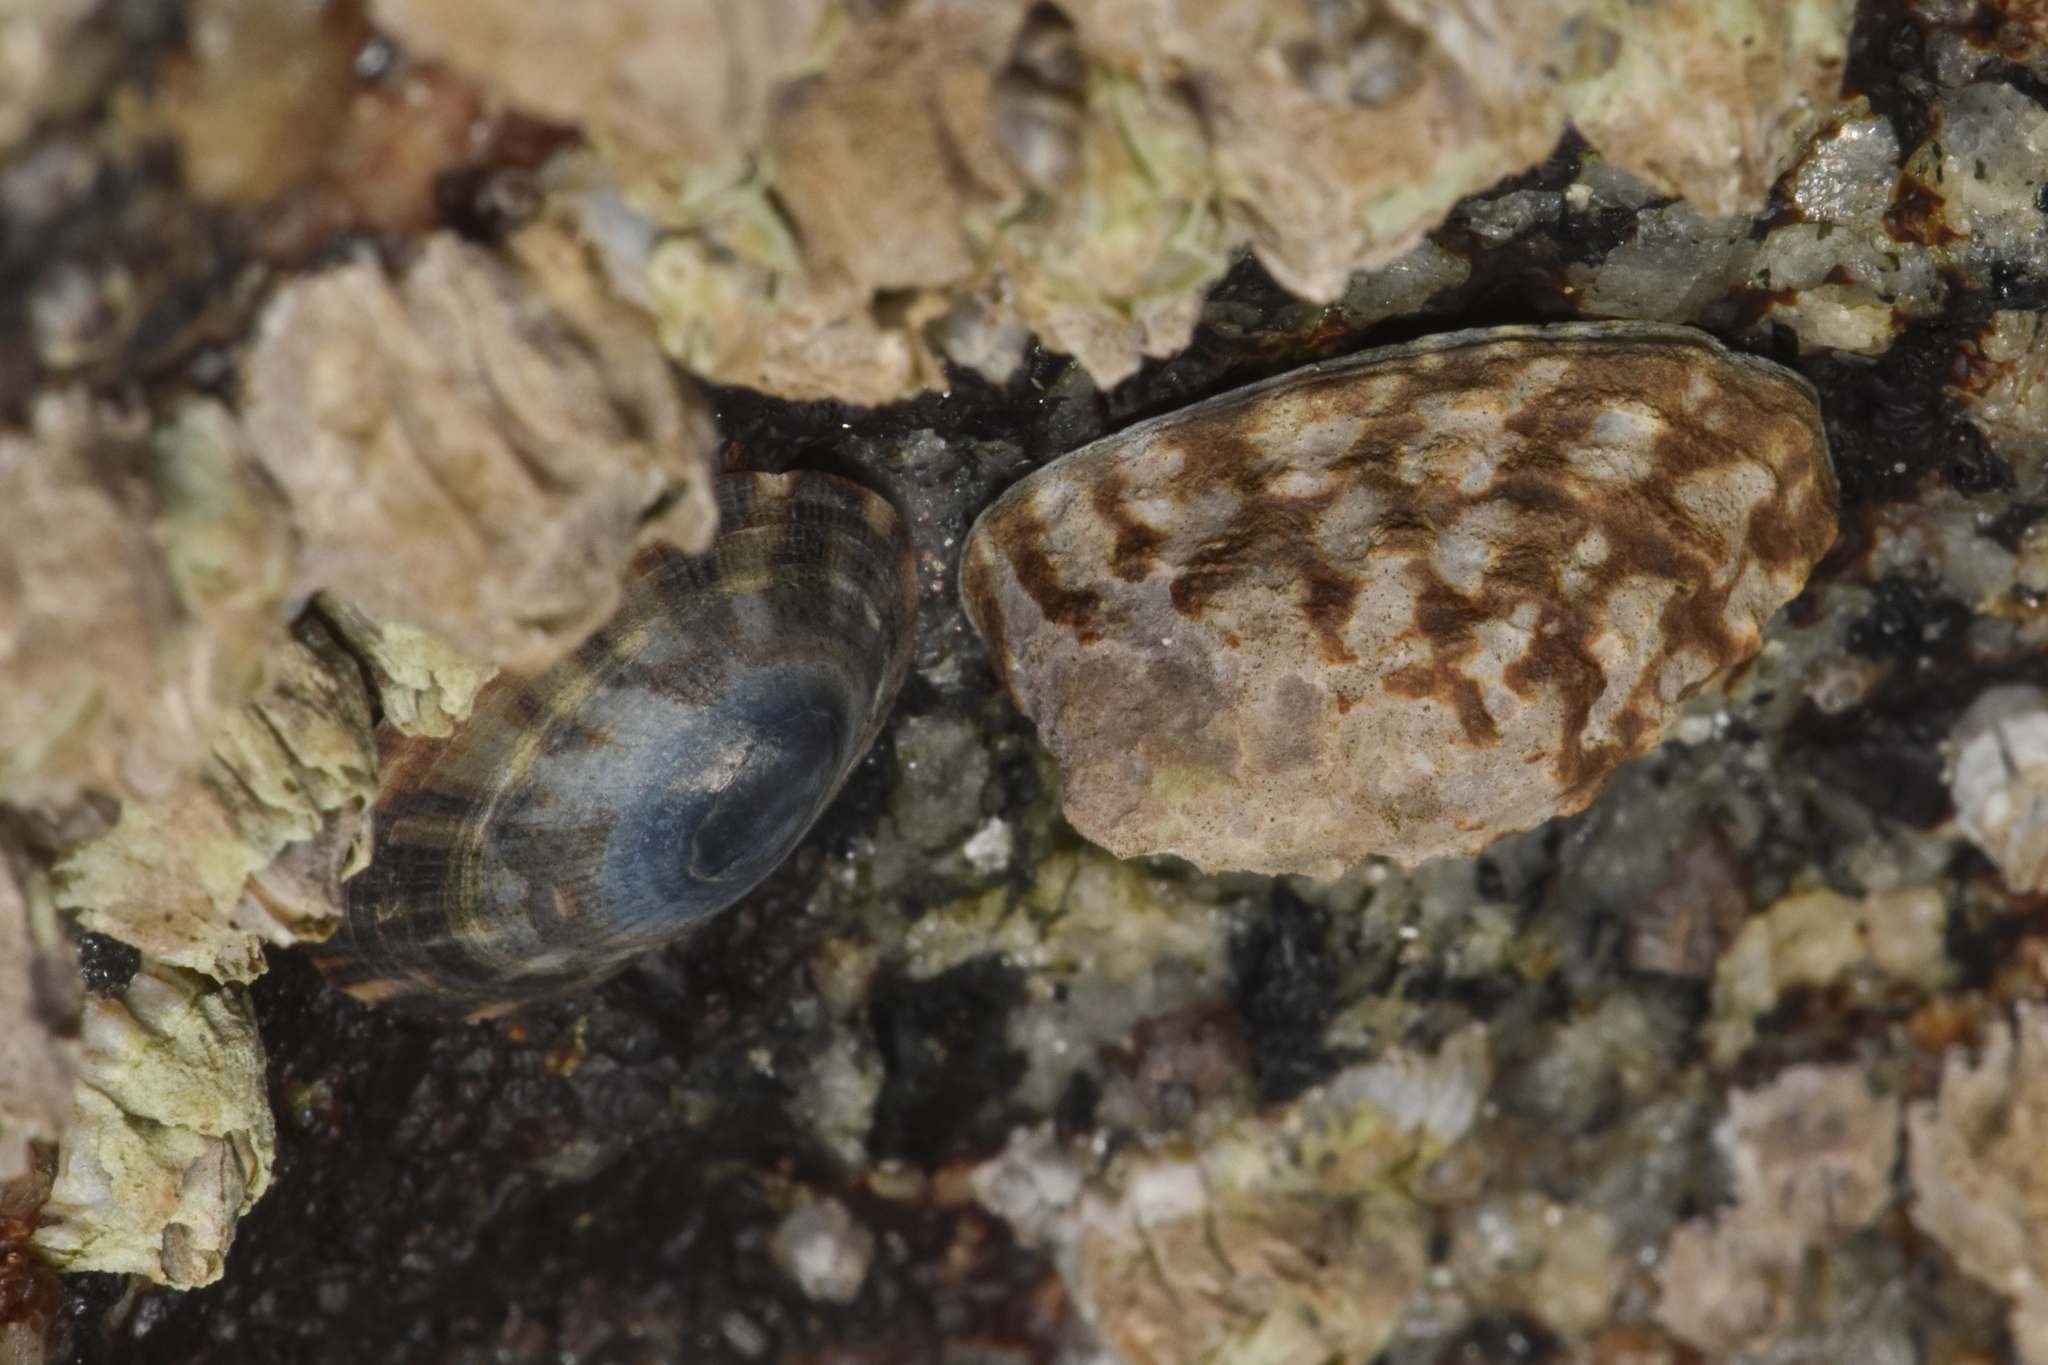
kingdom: Animalia
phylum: Mollusca
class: Gastropoda
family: Lottiidae
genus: Lottia
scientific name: Lottia digitalis
